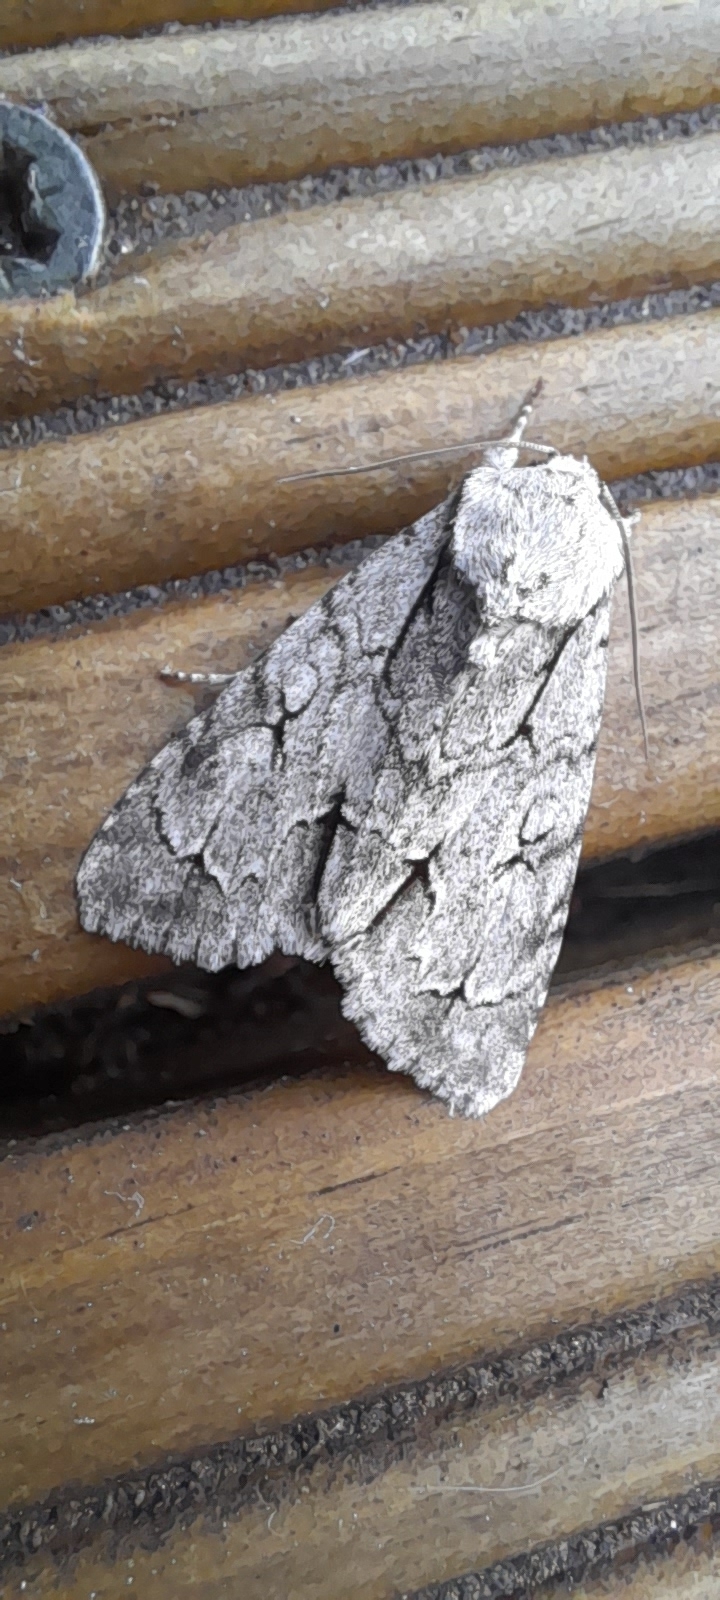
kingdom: Animalia
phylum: Arthropoda
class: Insecta
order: Lepidoptera
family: Noctuidae
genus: Acronicta
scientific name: Acronicta psi
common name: Grey dagger
